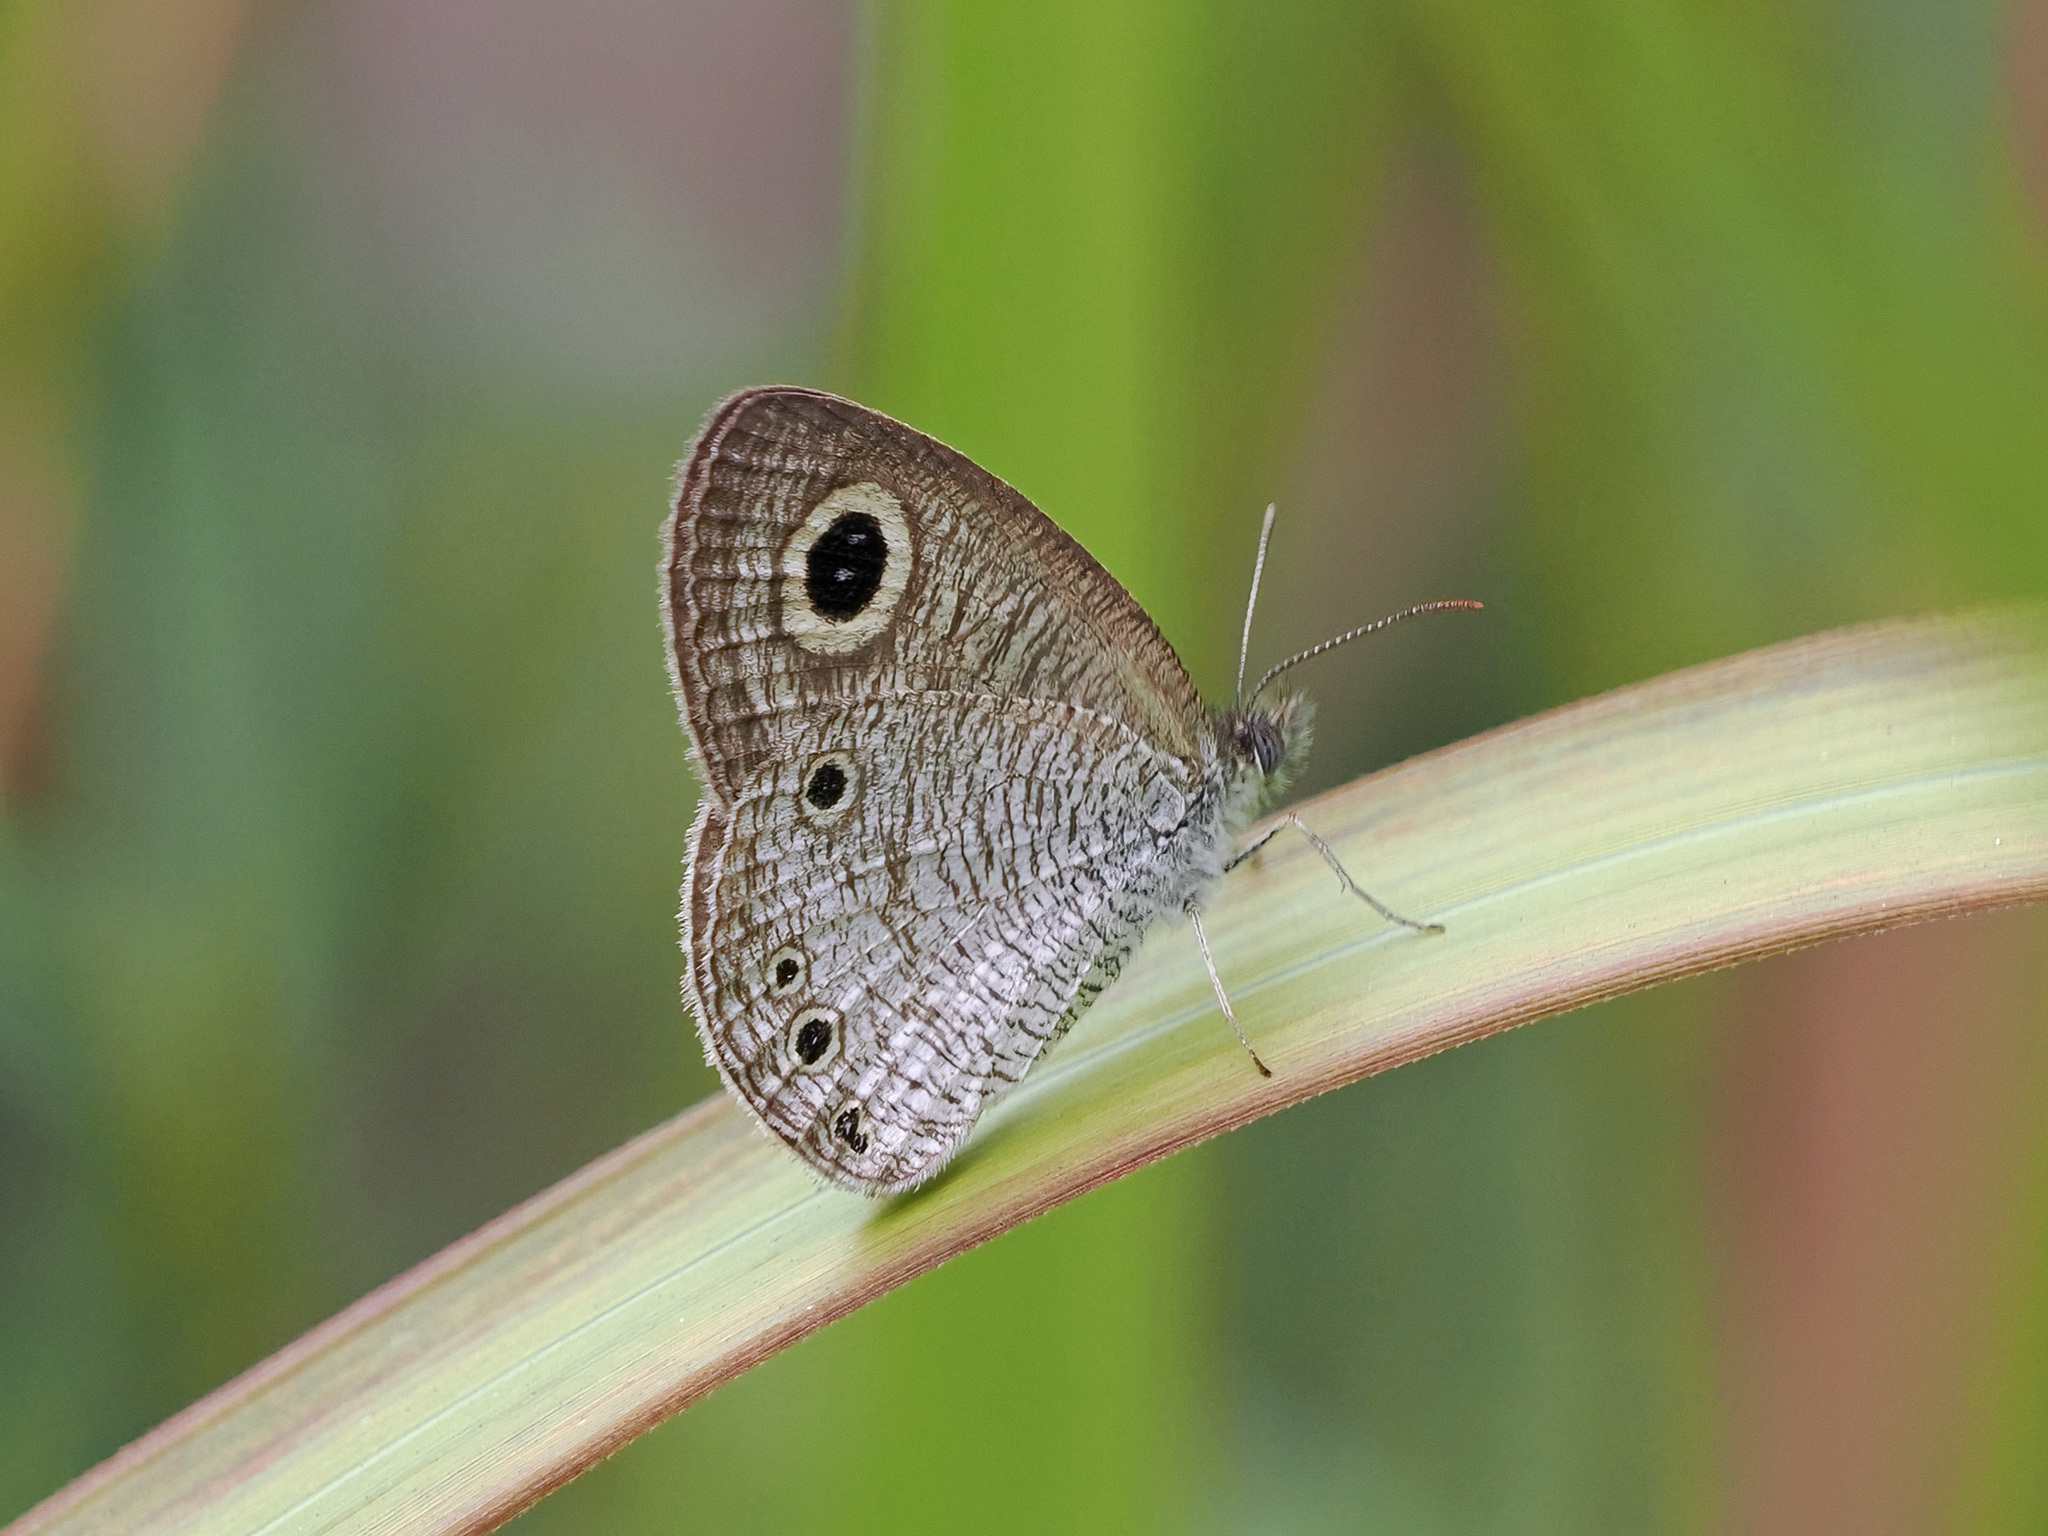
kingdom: Animalia
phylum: Arthropoda
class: Insecta
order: Lepidoptera
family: Nymphalidae
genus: Ypthima
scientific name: Ypthima huebneri
